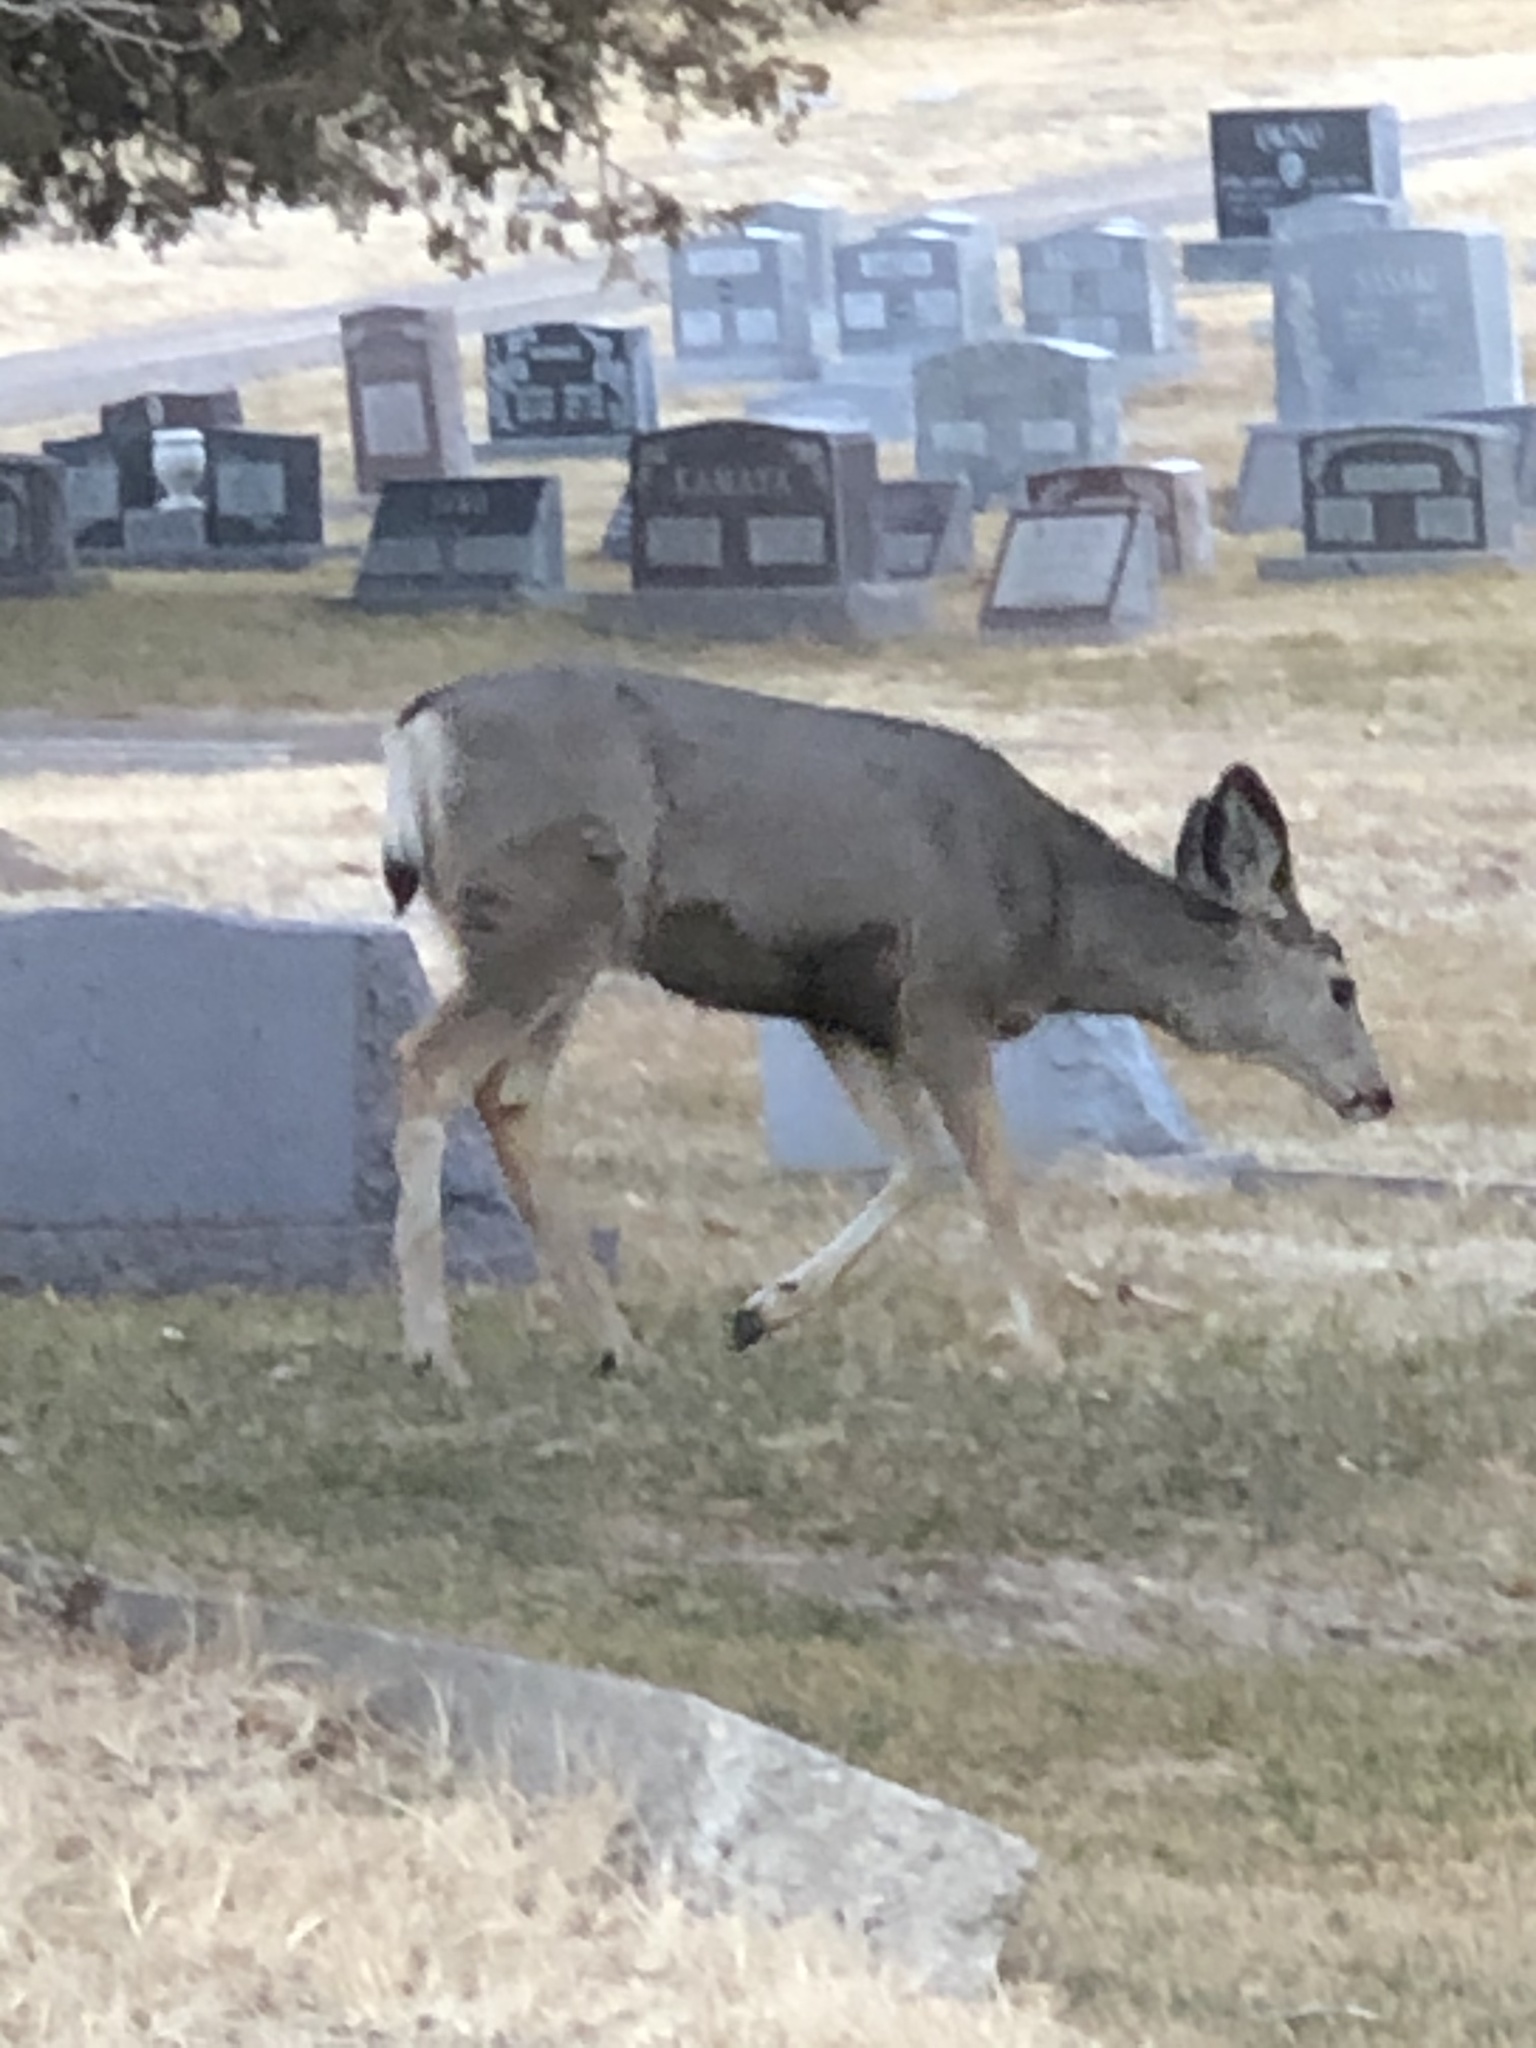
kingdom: Animalia
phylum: Chordata
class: Mammalia
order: Artiodactyla
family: Cervidae
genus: Odocoileus
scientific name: Odocoileus hemionus
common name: Mule deer
